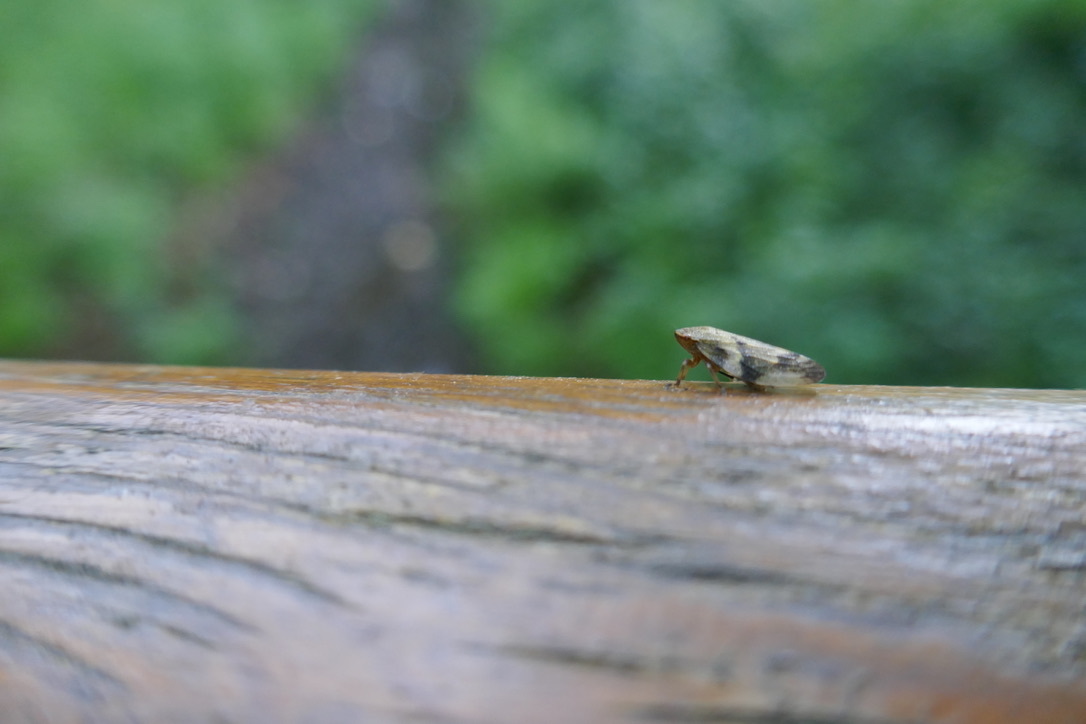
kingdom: Animalia
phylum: Arthropoda
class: Insecta
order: Hemiptera
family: Aphrophoridae
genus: Aphrophora
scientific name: Aphrophora alni
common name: European alder spittlebug
